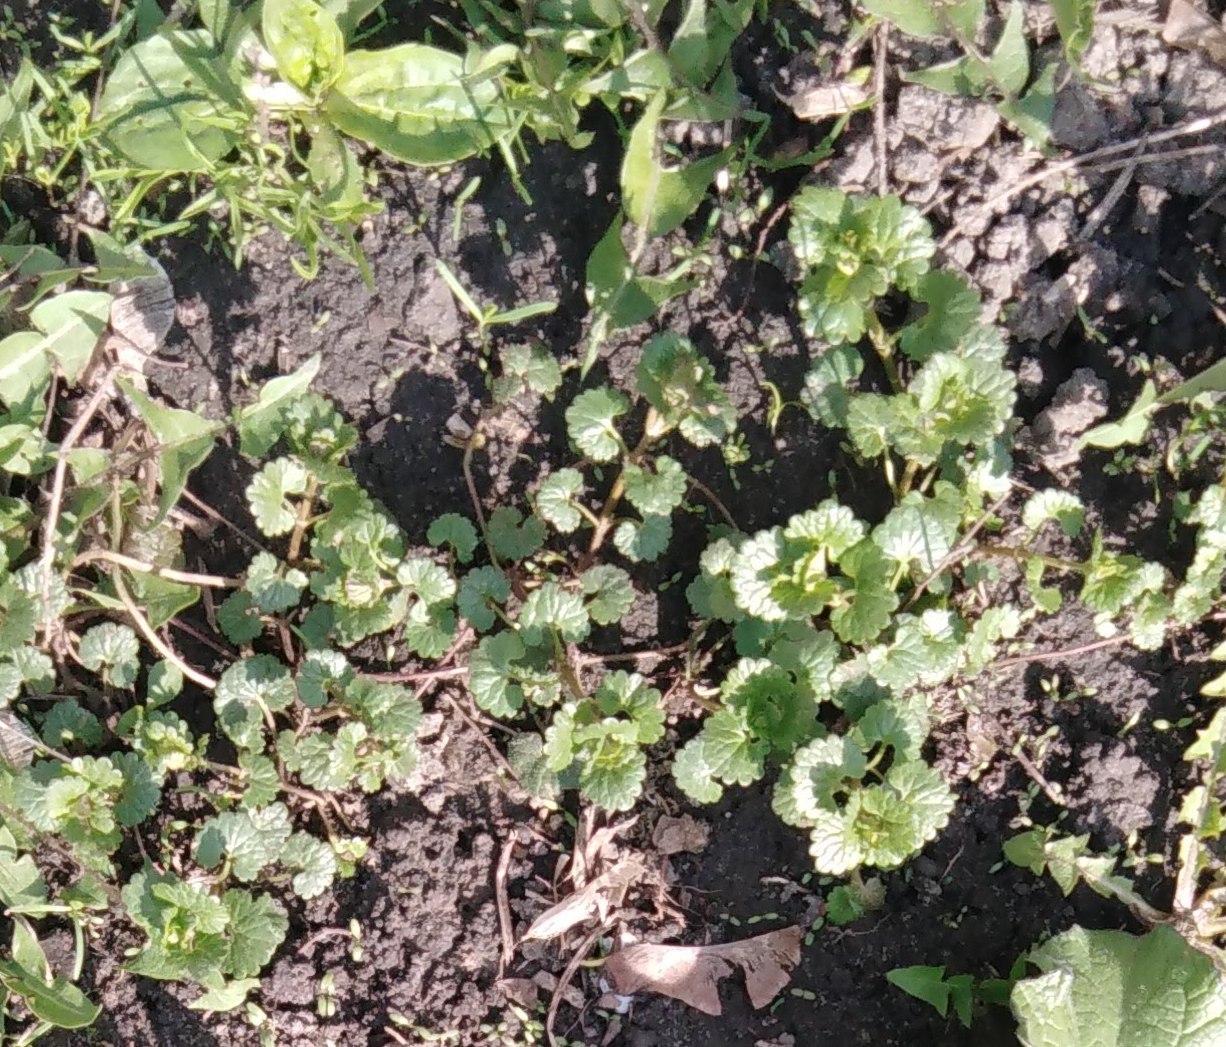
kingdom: Plantae
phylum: Tracheophyta
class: Magnoliopsida
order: Lamiales
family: Lamiaceae
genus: Glechoma
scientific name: Glechoma hederacea
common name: Ground ivy
